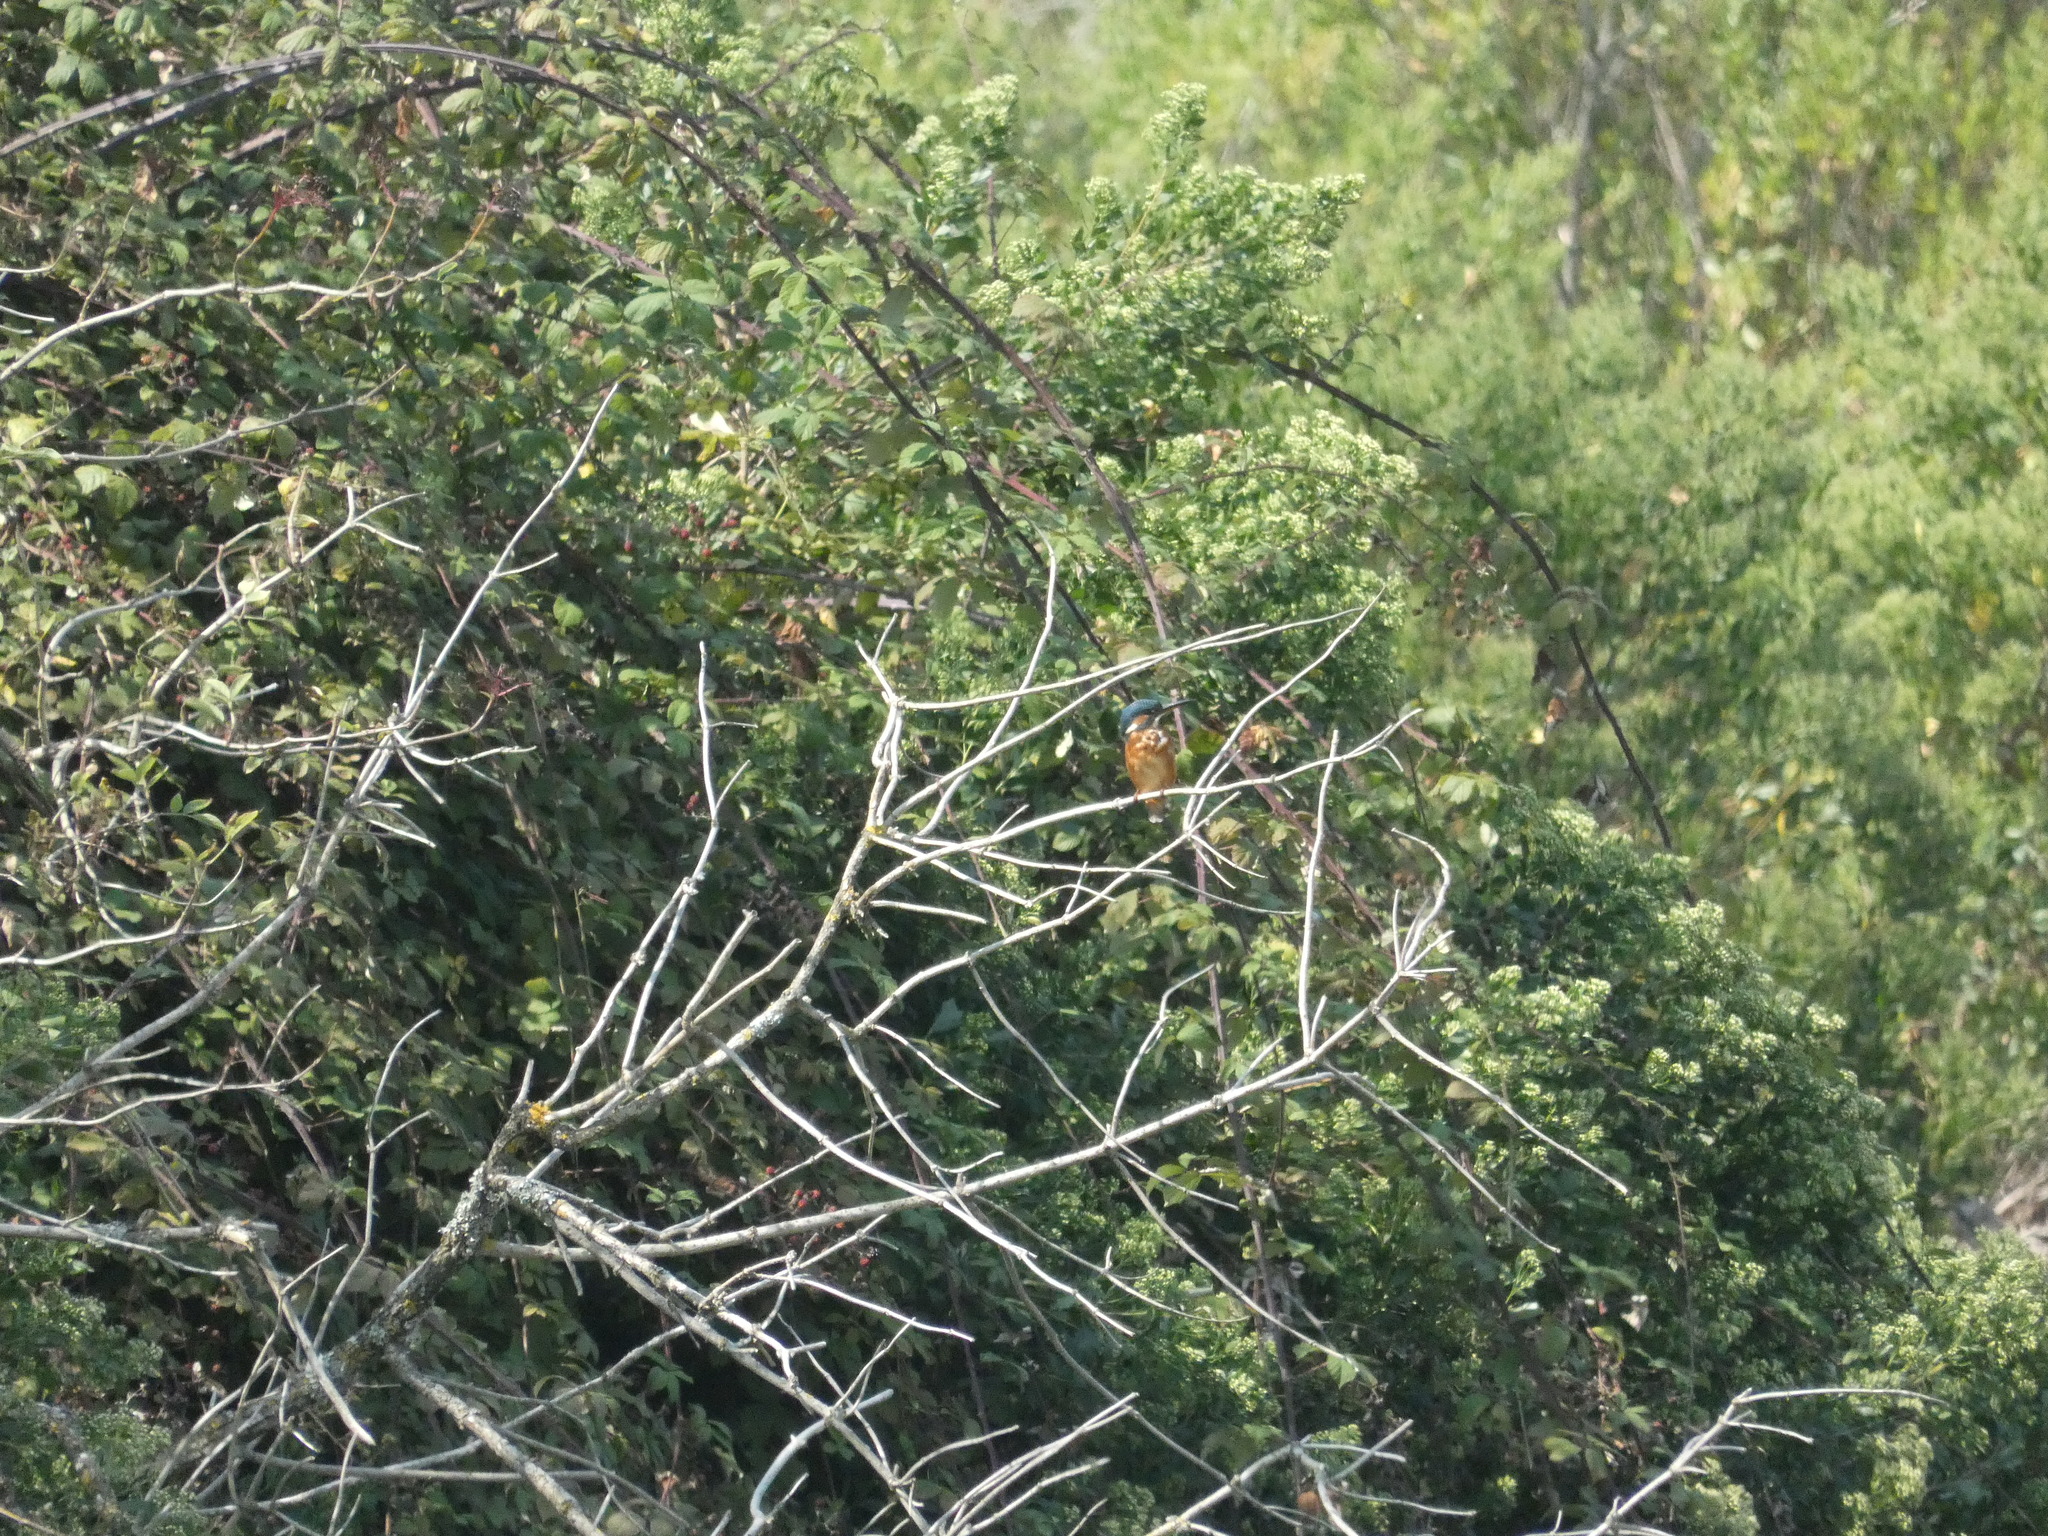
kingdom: Animalia
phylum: Chordata
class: Aves
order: Coraciiformes
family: Alcedinidae
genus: Alcedo
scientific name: Alcedo atthis
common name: Common kingfisher
